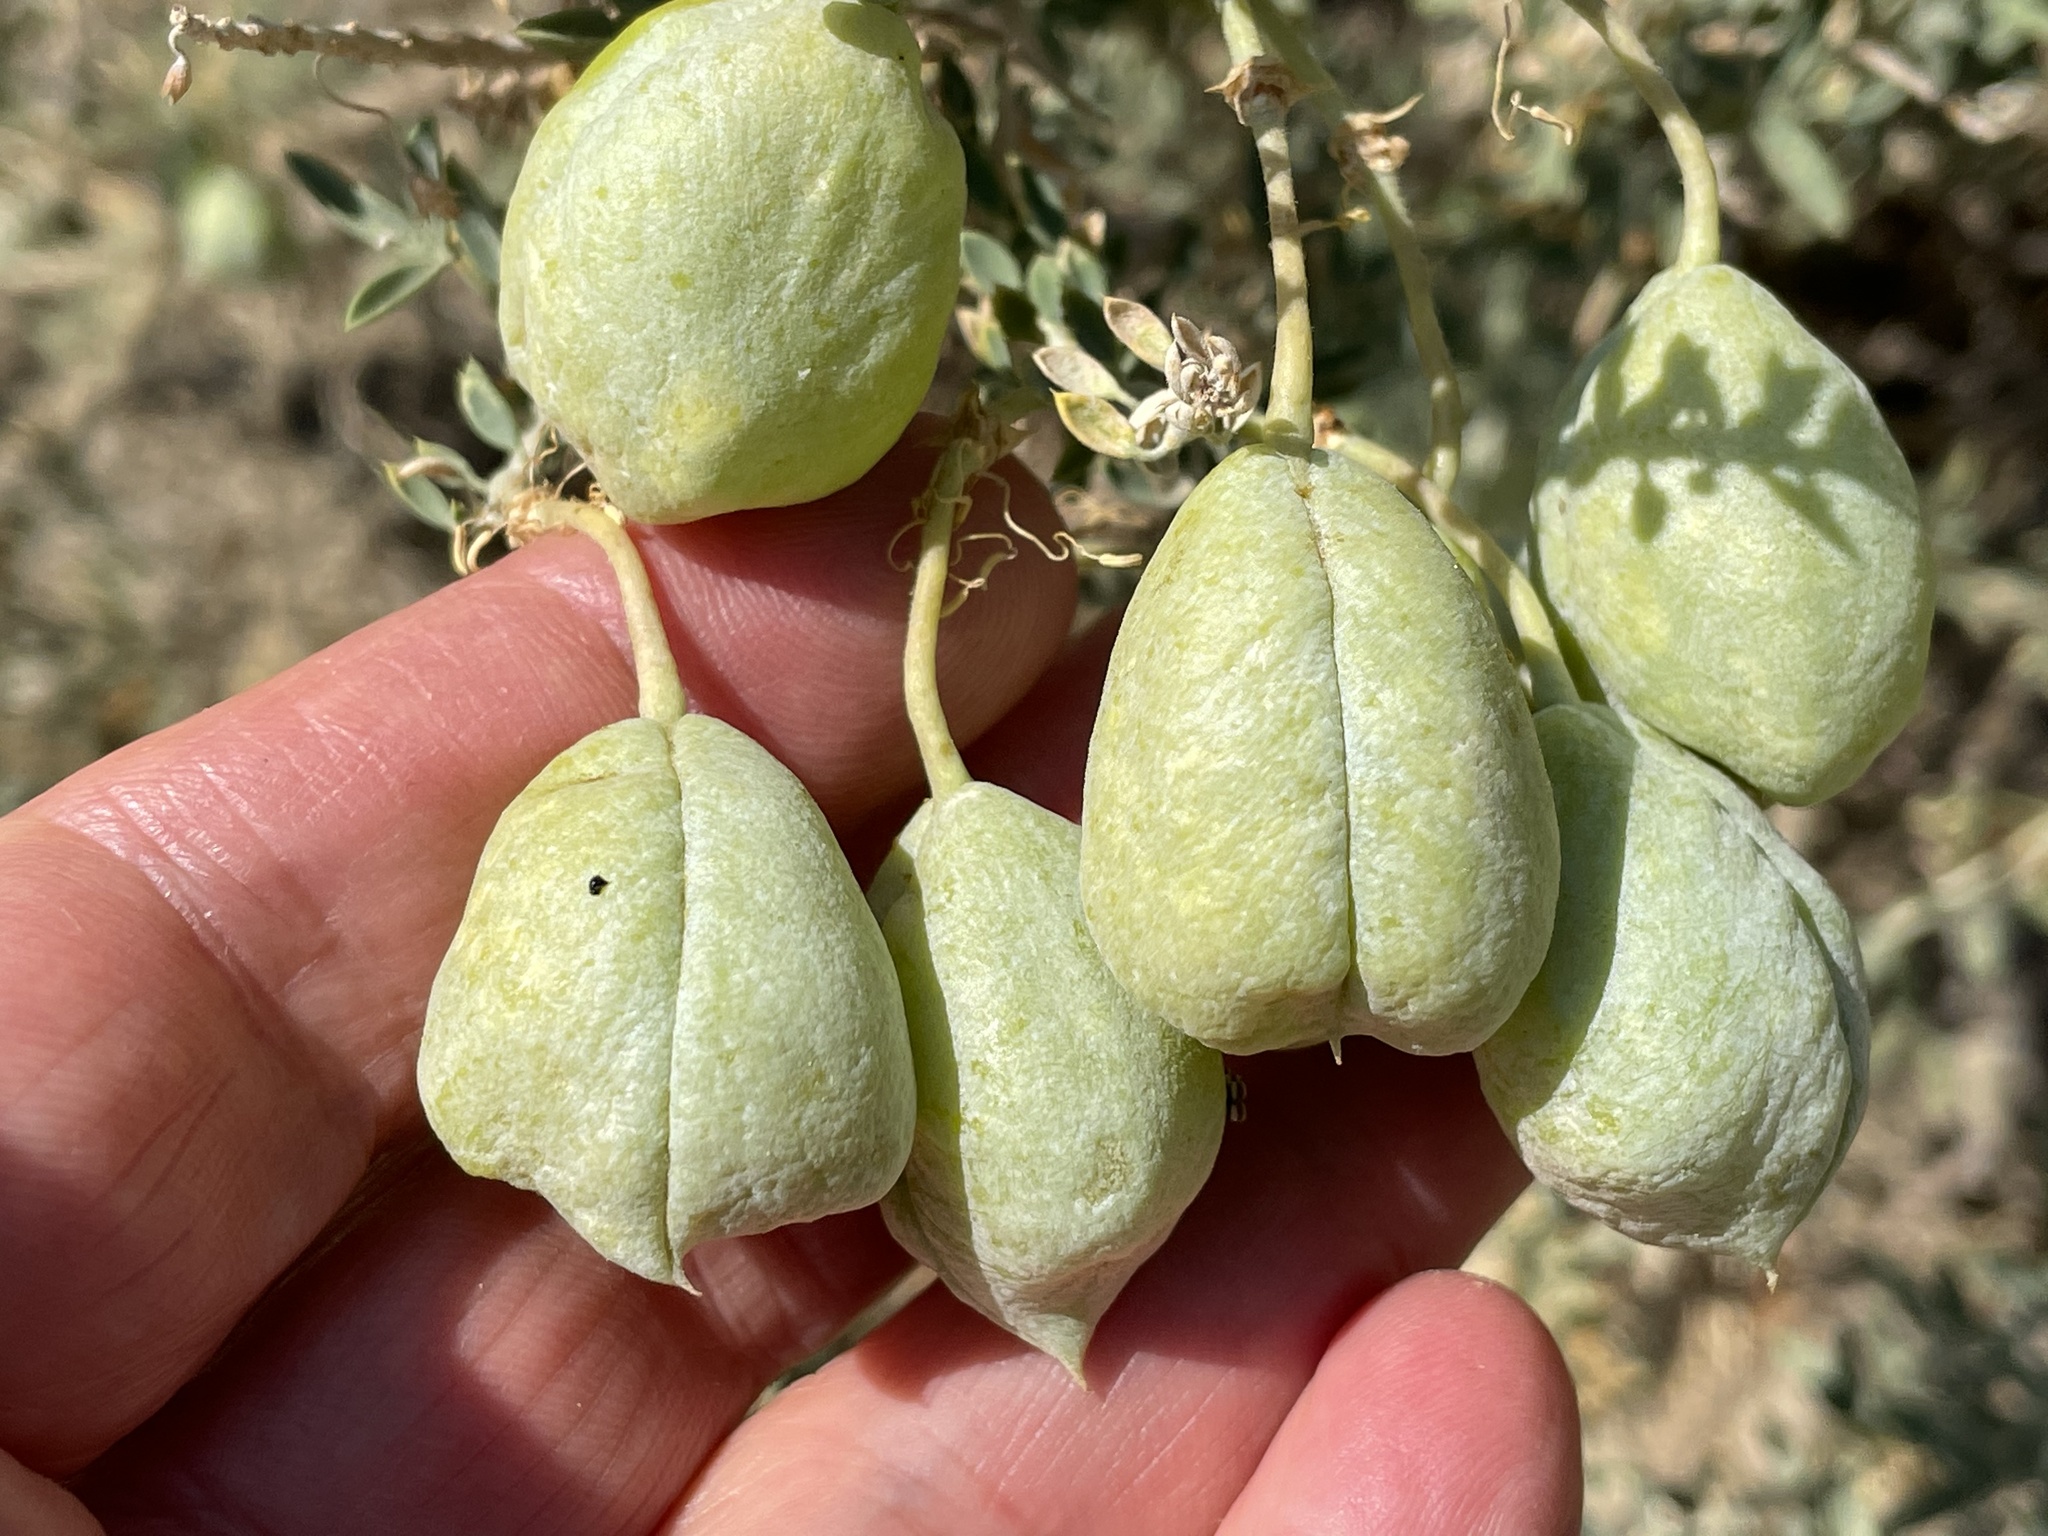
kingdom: Plantae
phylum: Tracheophyta
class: Magnoliopsida
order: Brassicales
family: Cleomaceae
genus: Cleomella
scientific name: Cleomella arborea
